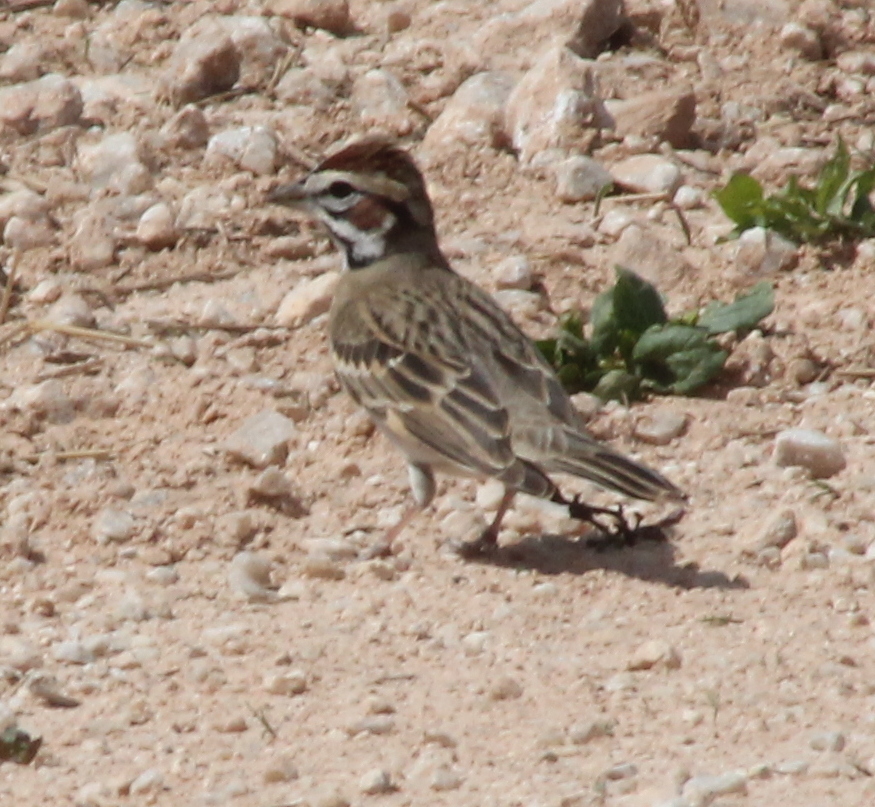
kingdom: Animalia
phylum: Chordata
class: Aves
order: Passeriformes
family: Passerellidae
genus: Chondestes
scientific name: Chondestes grammacus
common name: Lark sparrow
